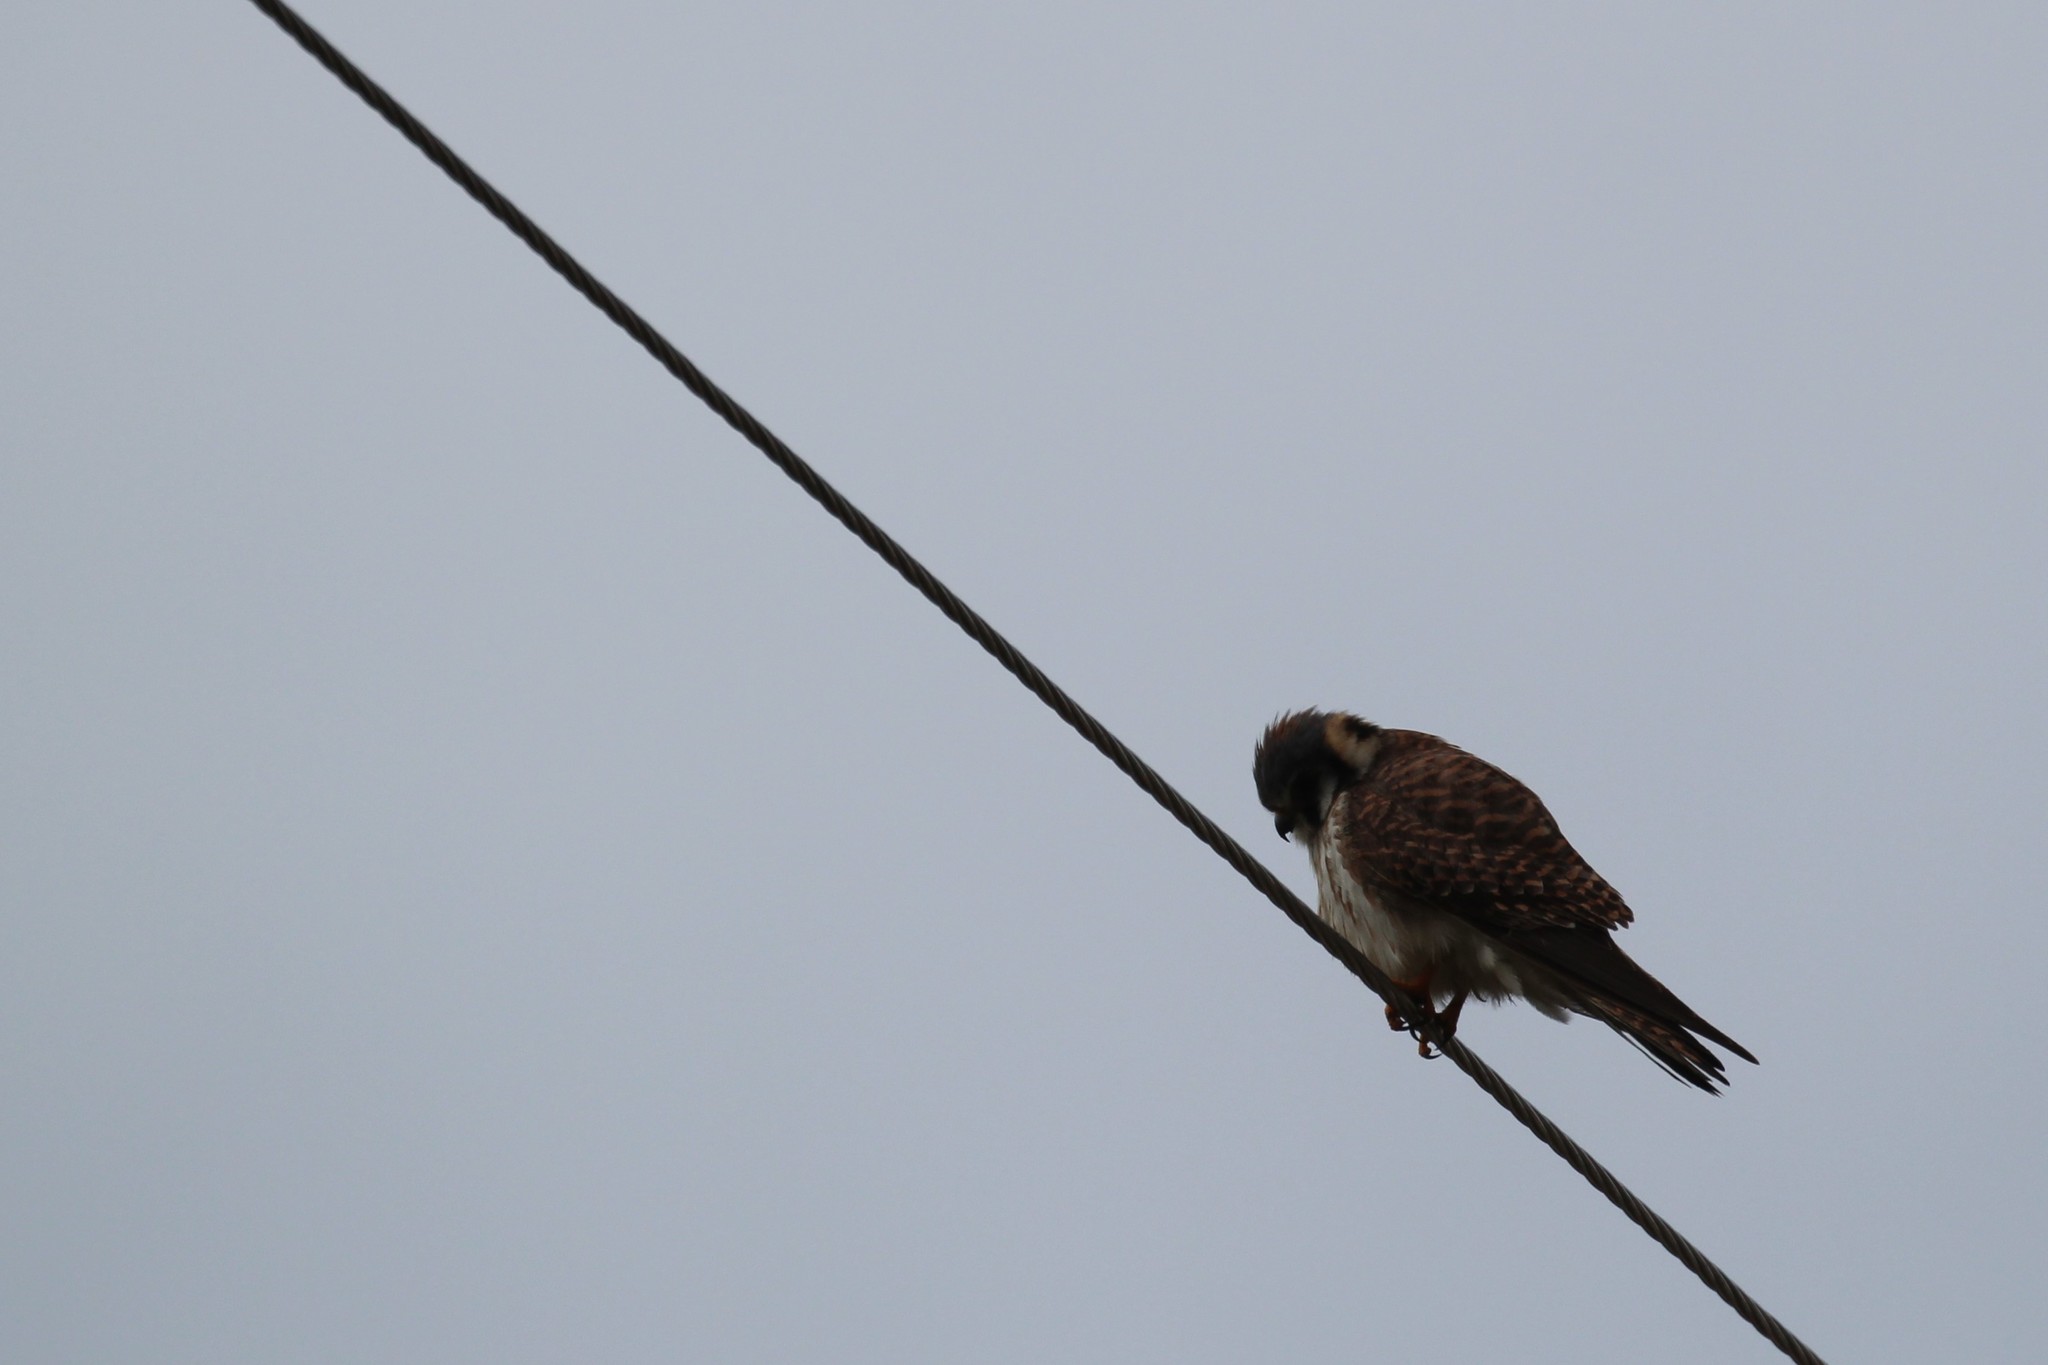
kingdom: Animalia
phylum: Chordata
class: Aves
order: Falconiformes
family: Falconidae
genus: Falco
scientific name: Falco sparverius
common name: American kestrel
